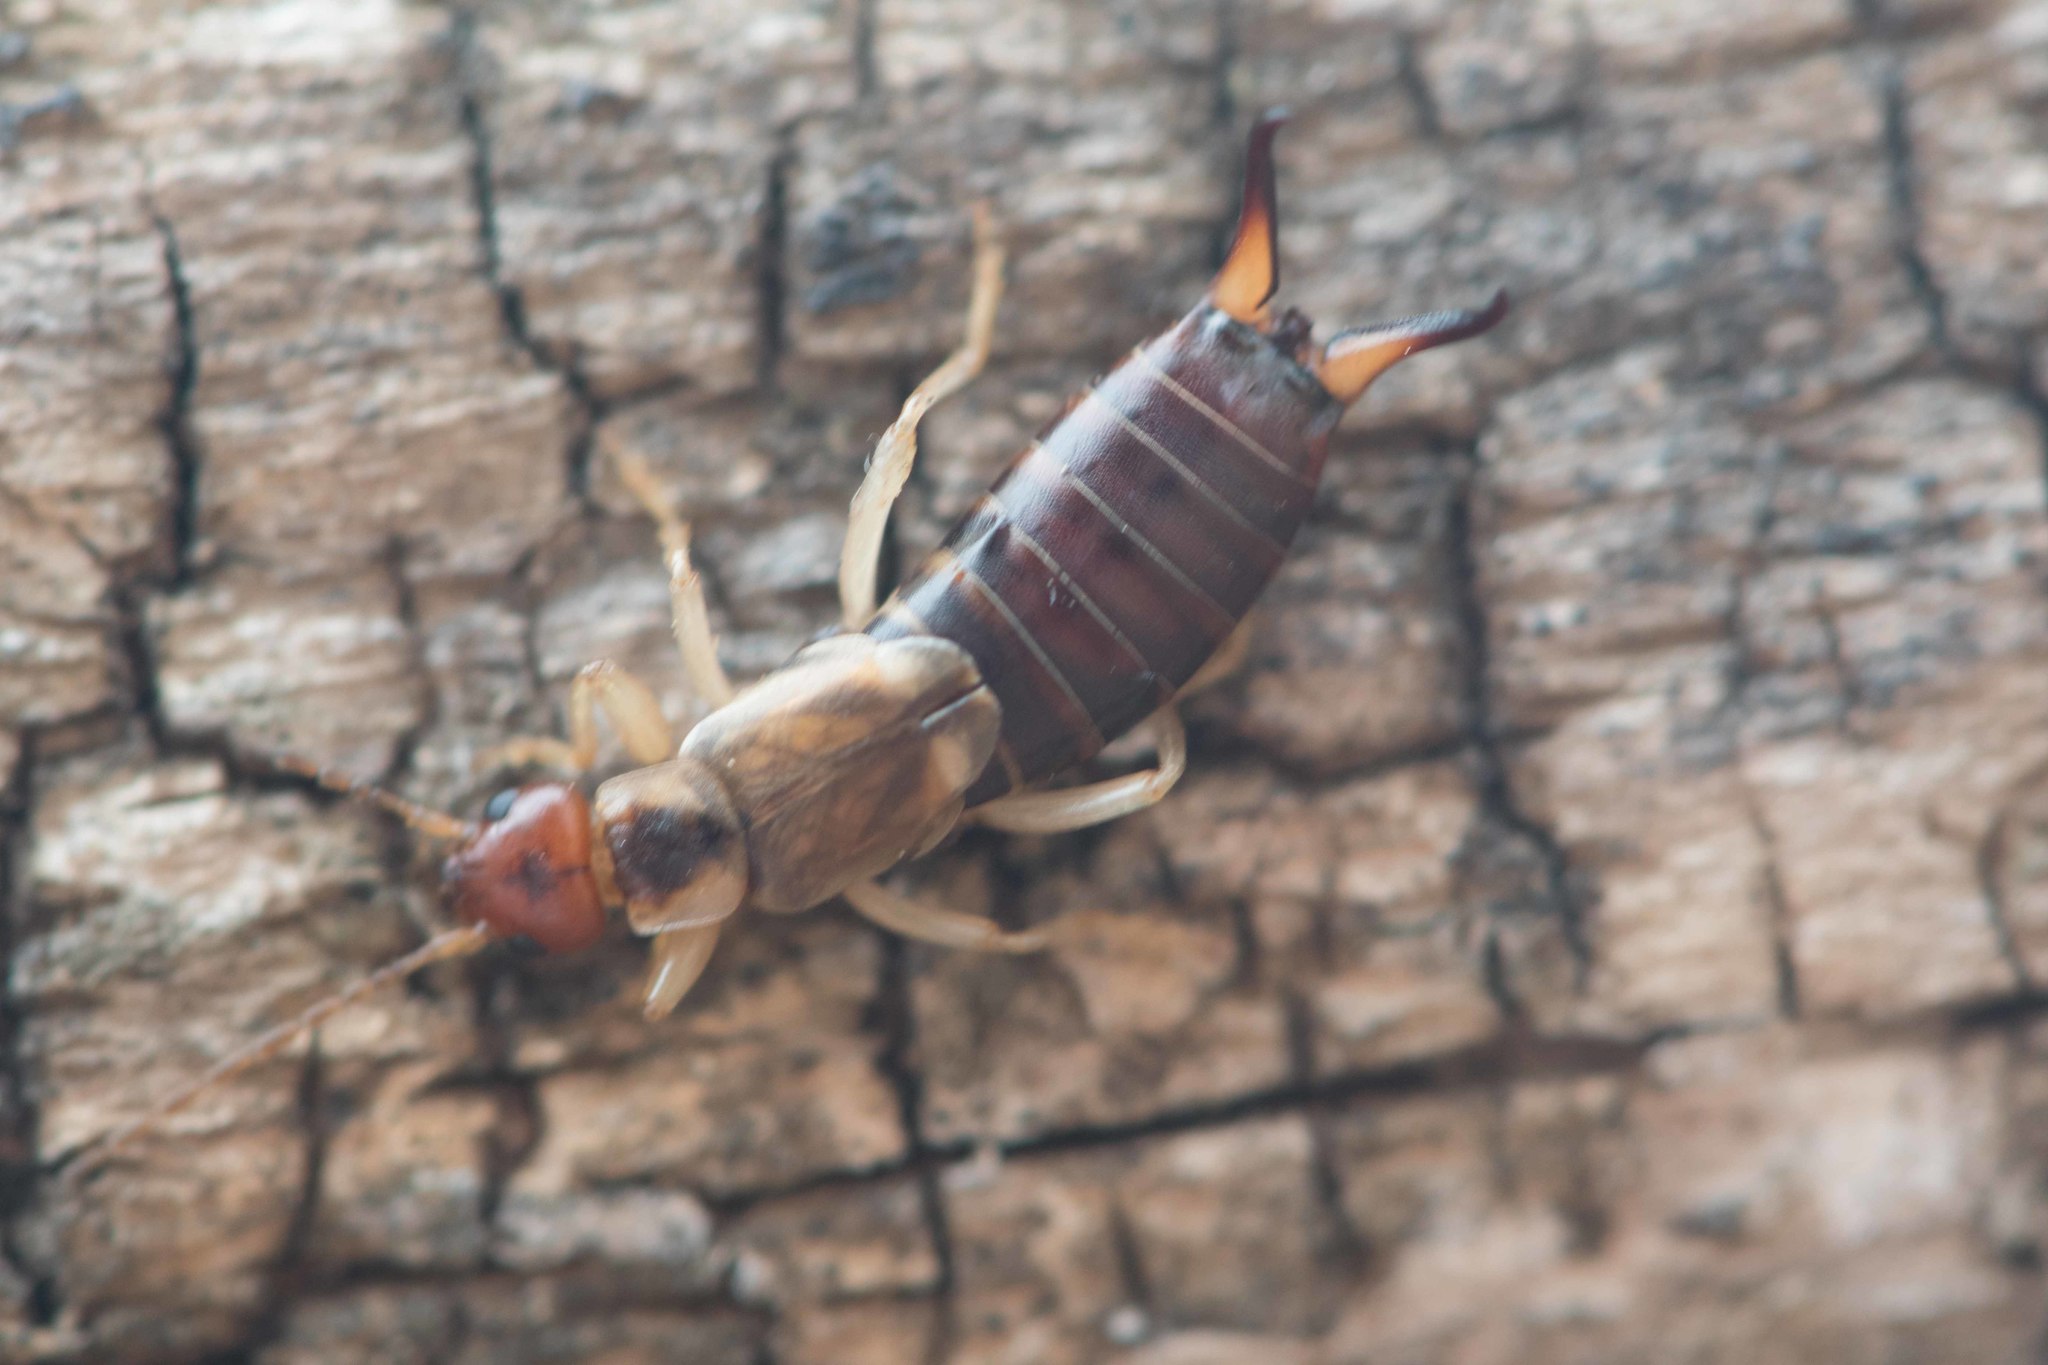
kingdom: Animalia
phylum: Arthropoda
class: Insecta
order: Dermaptera
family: Forficulidae
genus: Forficula
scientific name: Forficula
